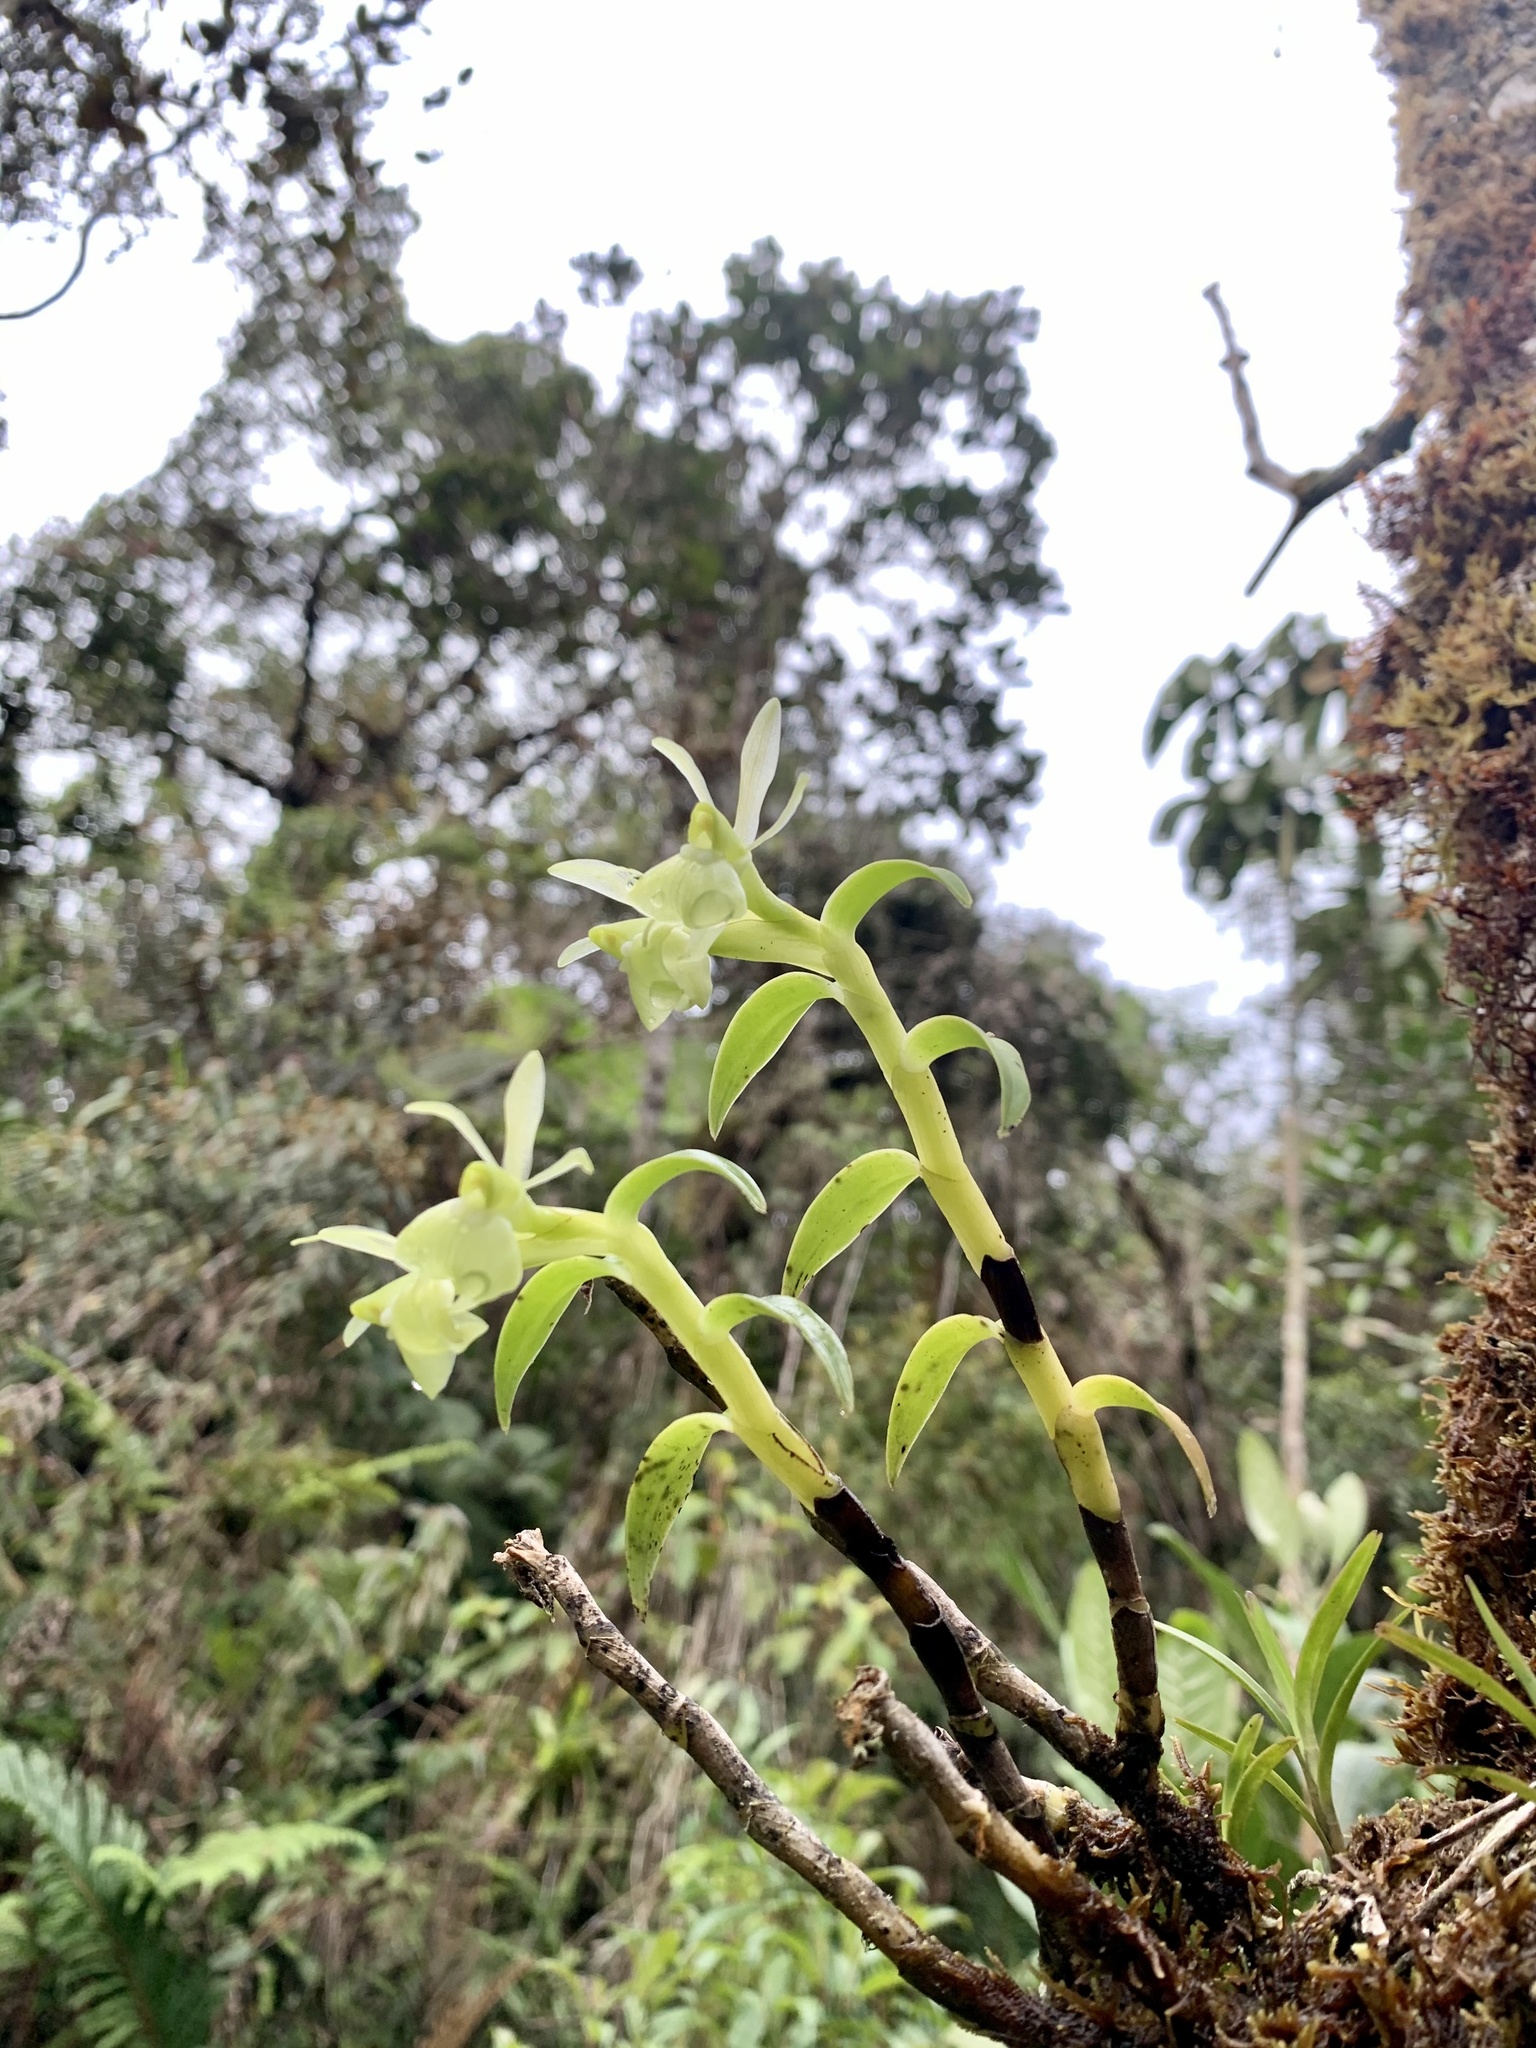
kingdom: Plantae
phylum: Tracheophyta
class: Liliopsida
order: Asparagales
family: Orchidaceae
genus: Epidendrum
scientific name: Epidendrum difforme
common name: Umbrella epidendrum
